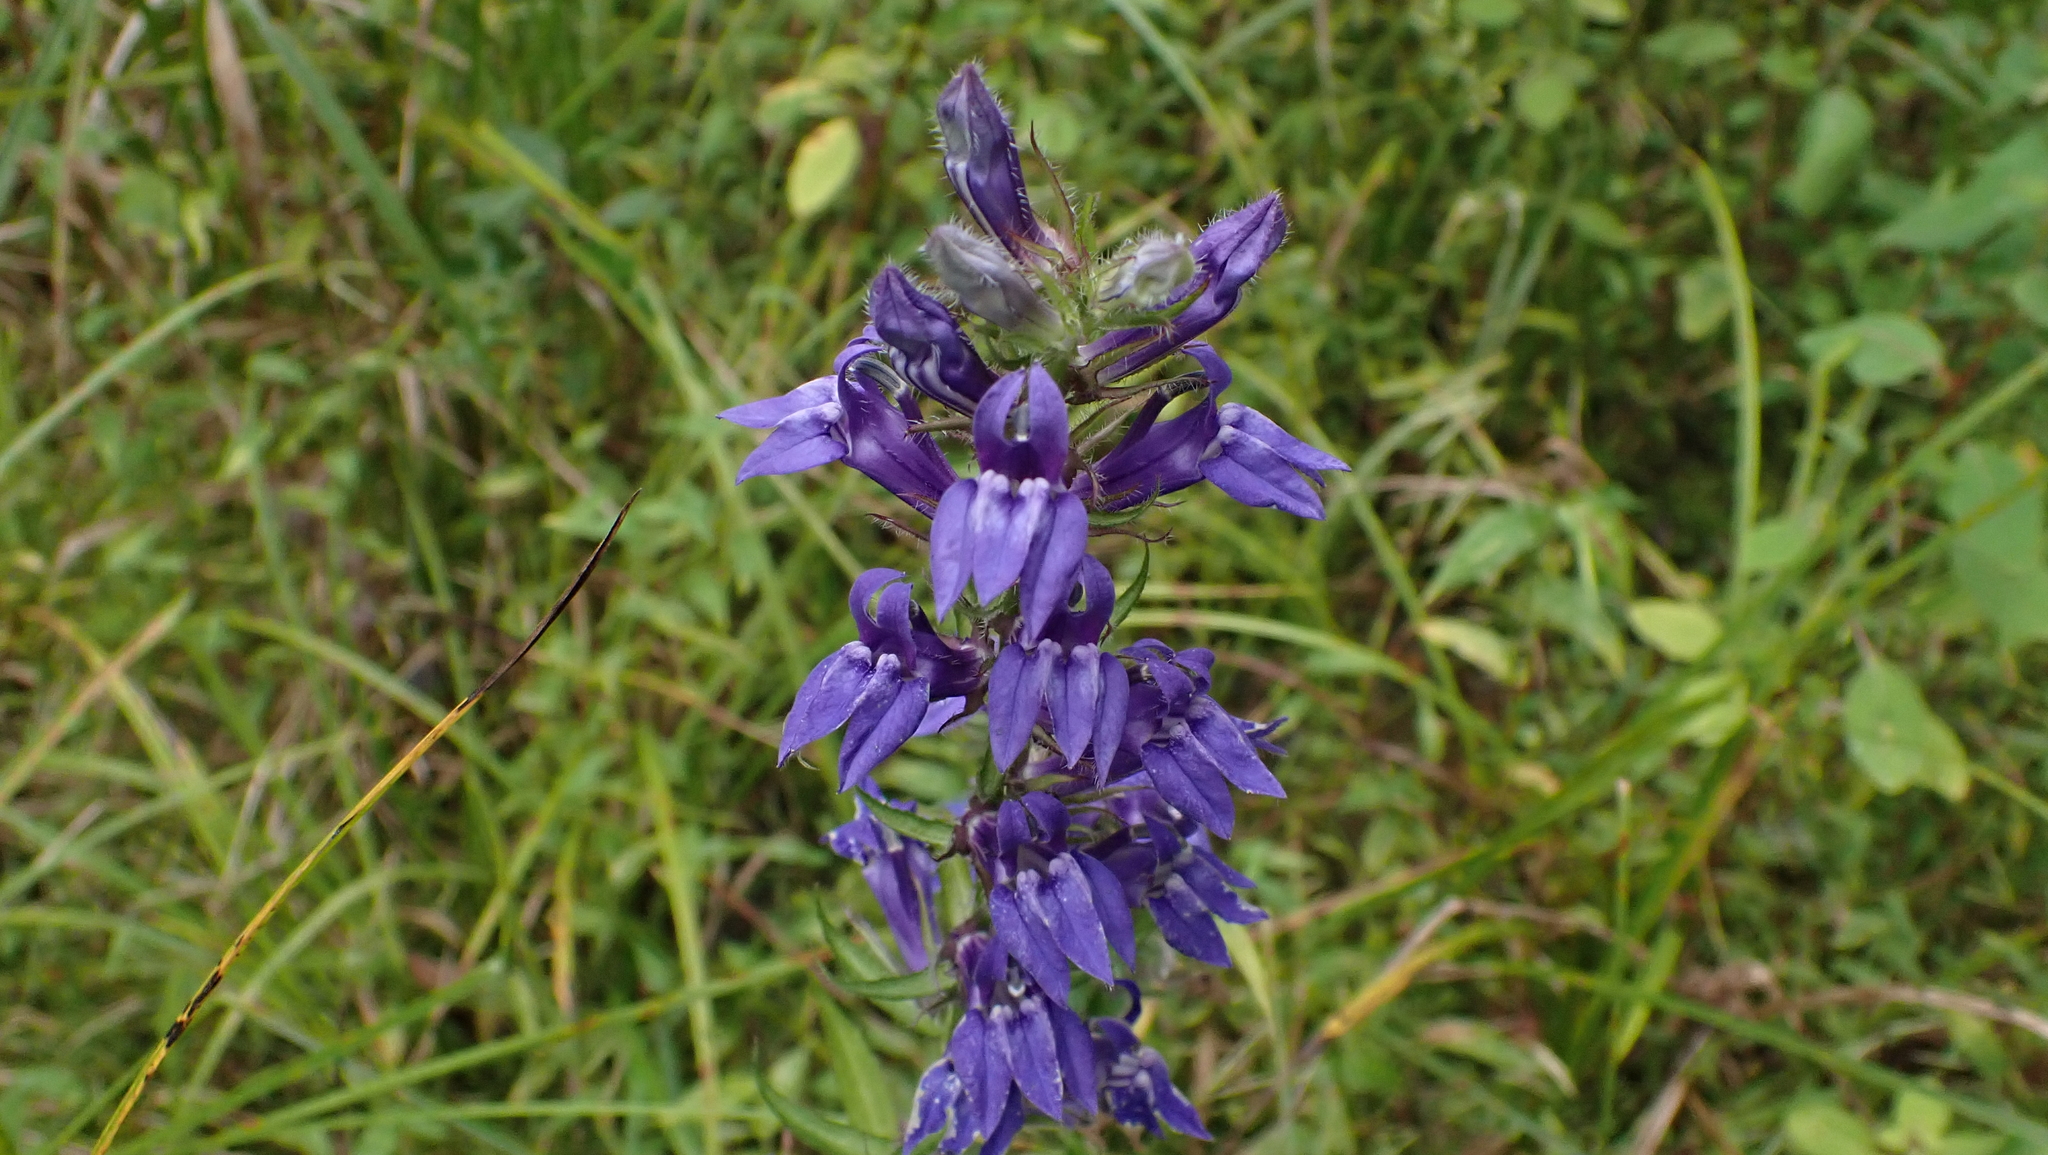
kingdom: Plantae
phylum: Tracheophyta
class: Magnoliopsida
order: Asterales
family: Campanulaceae
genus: Lobelia
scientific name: Lobelia siphilitica
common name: Great lobelia
